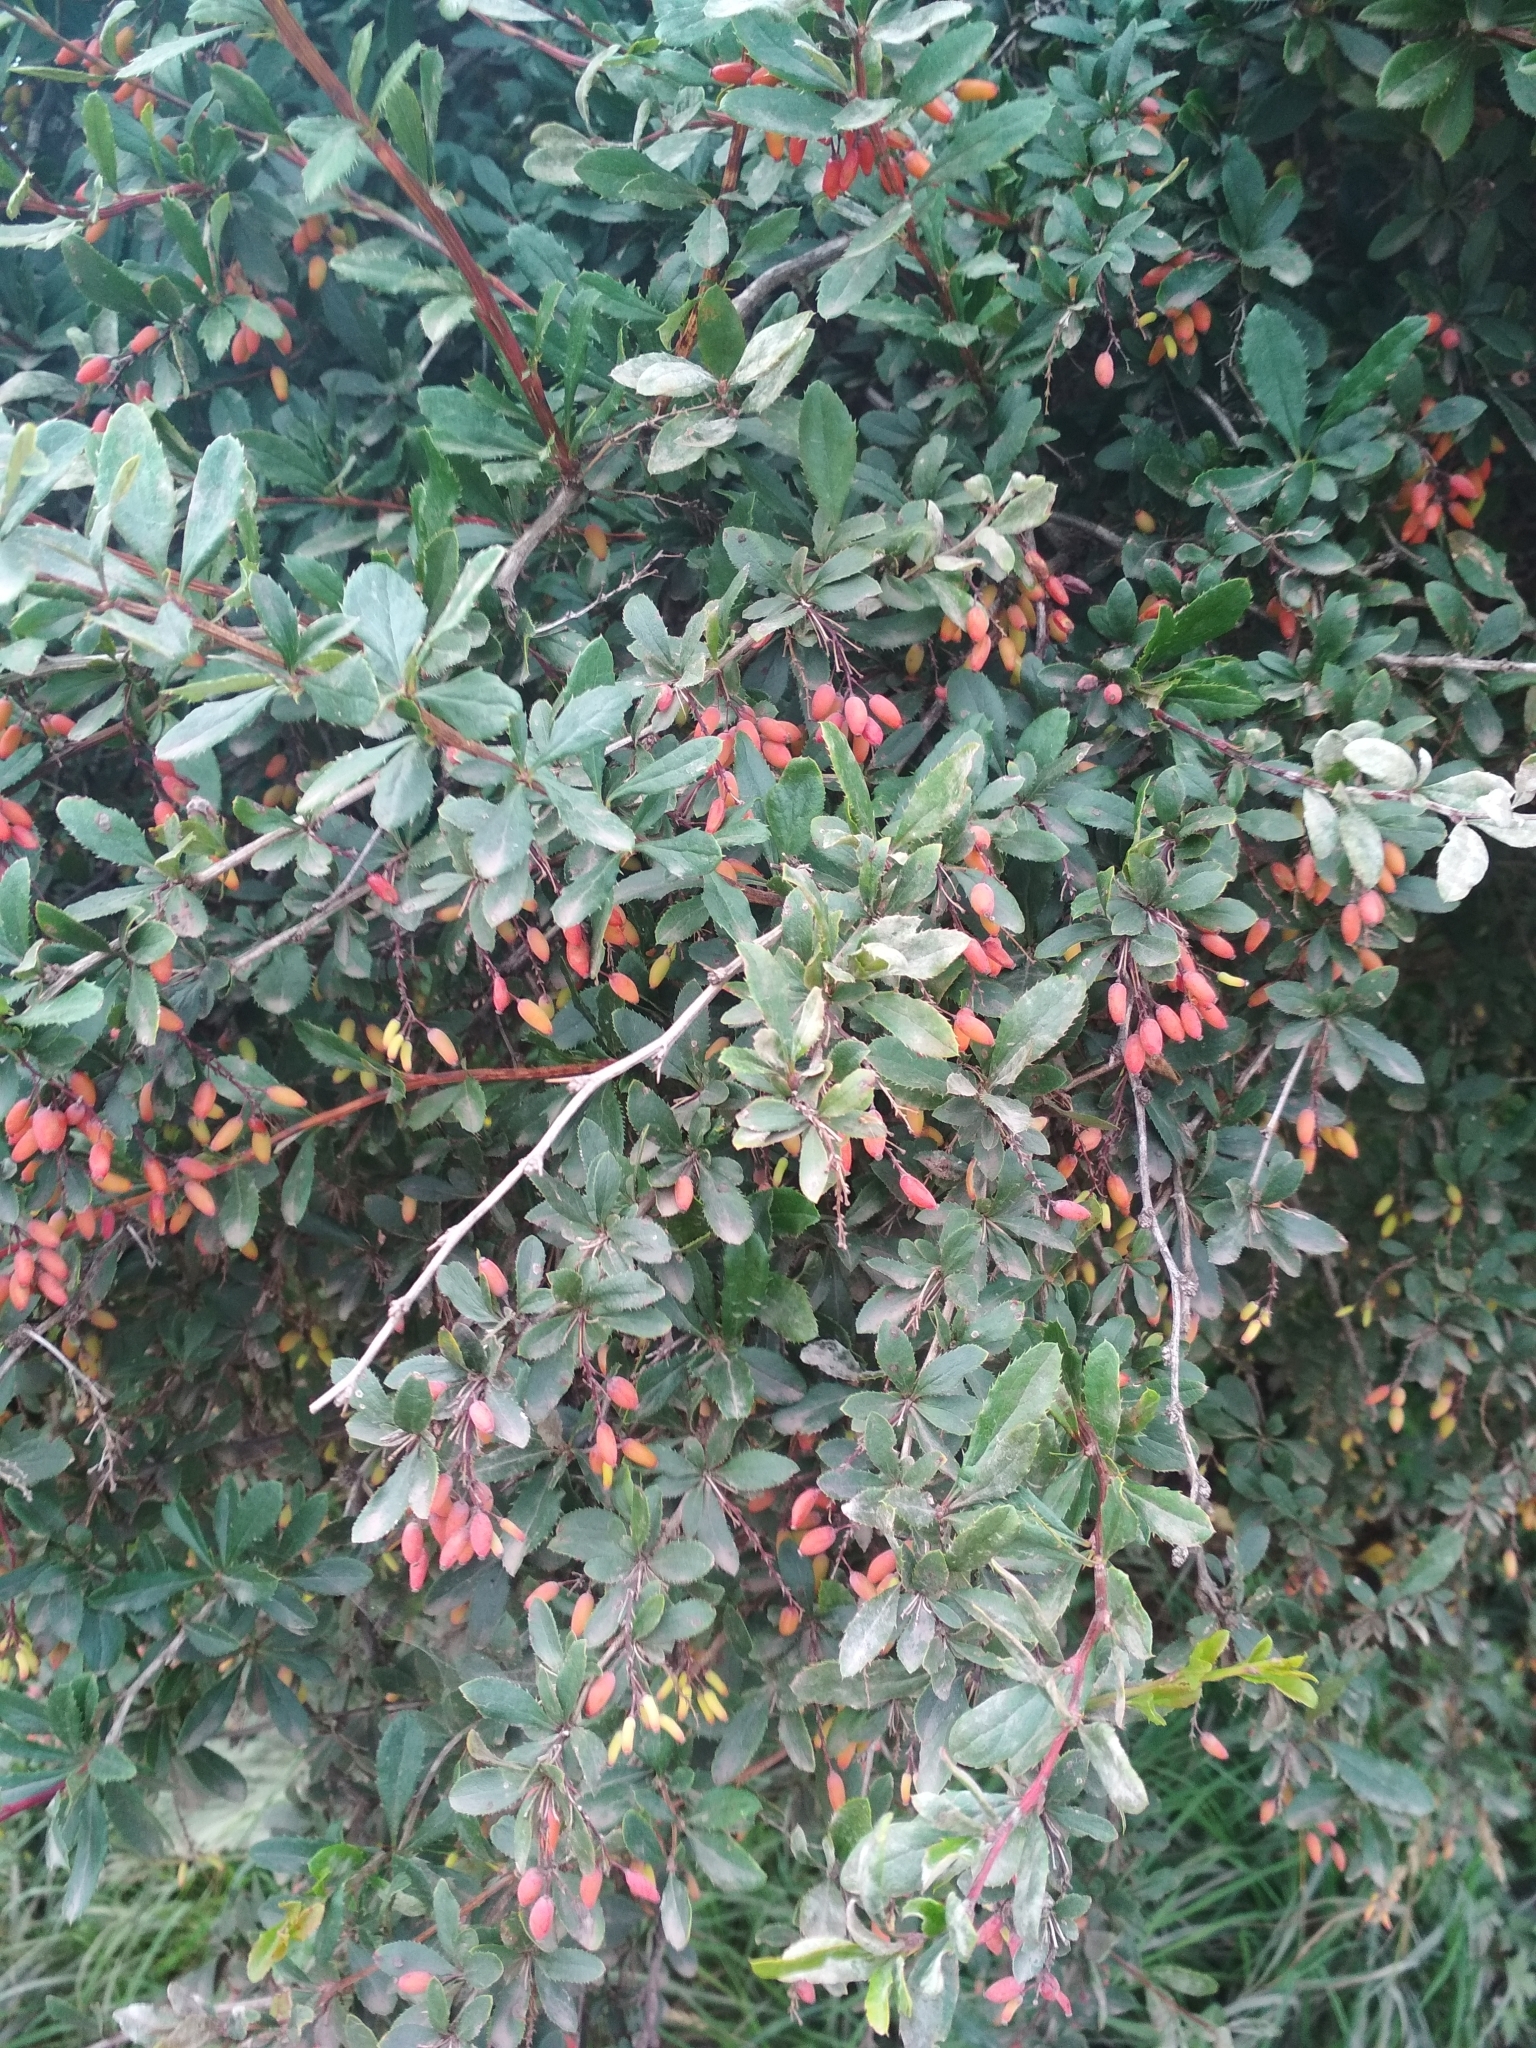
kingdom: Plantae
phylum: Tracheophyta
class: Magnoliopsida
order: Ranunculales
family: Berberidaceae
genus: Berberis
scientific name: Berberis vulgaris
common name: Barberry
